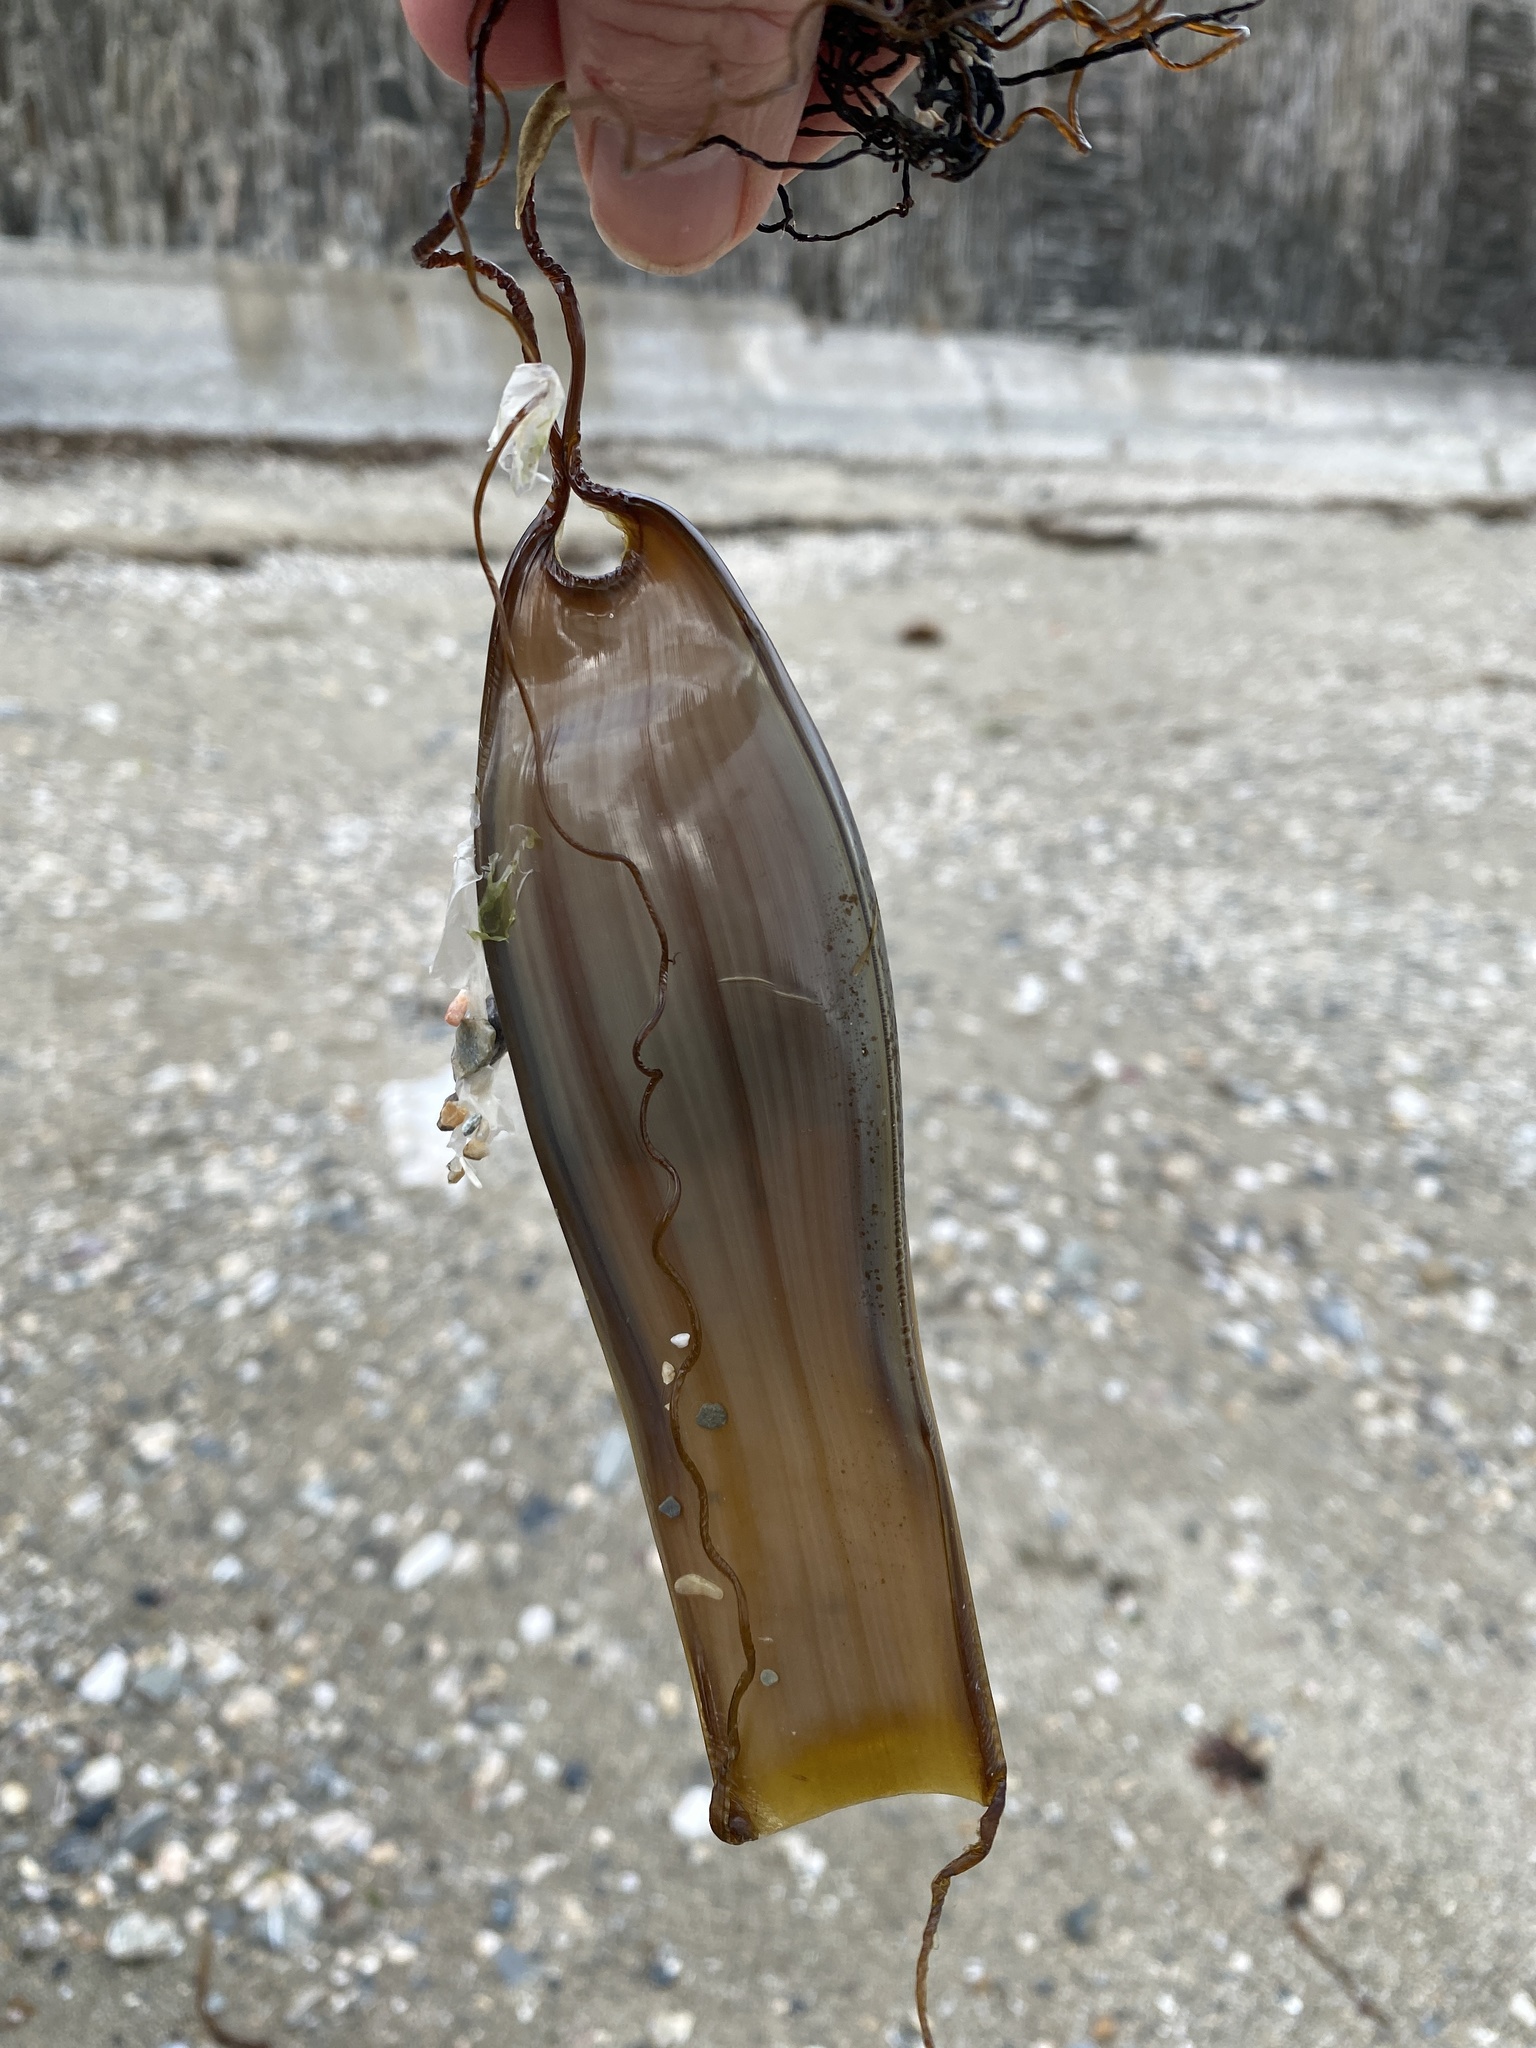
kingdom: Animalia
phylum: Chordata
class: Elasmobranchii
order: Carcharhiniformes
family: Scyliorhinidae
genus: Scyliorhinus
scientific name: Scyliorhinus canicula
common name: Lesser spotted dogfish
